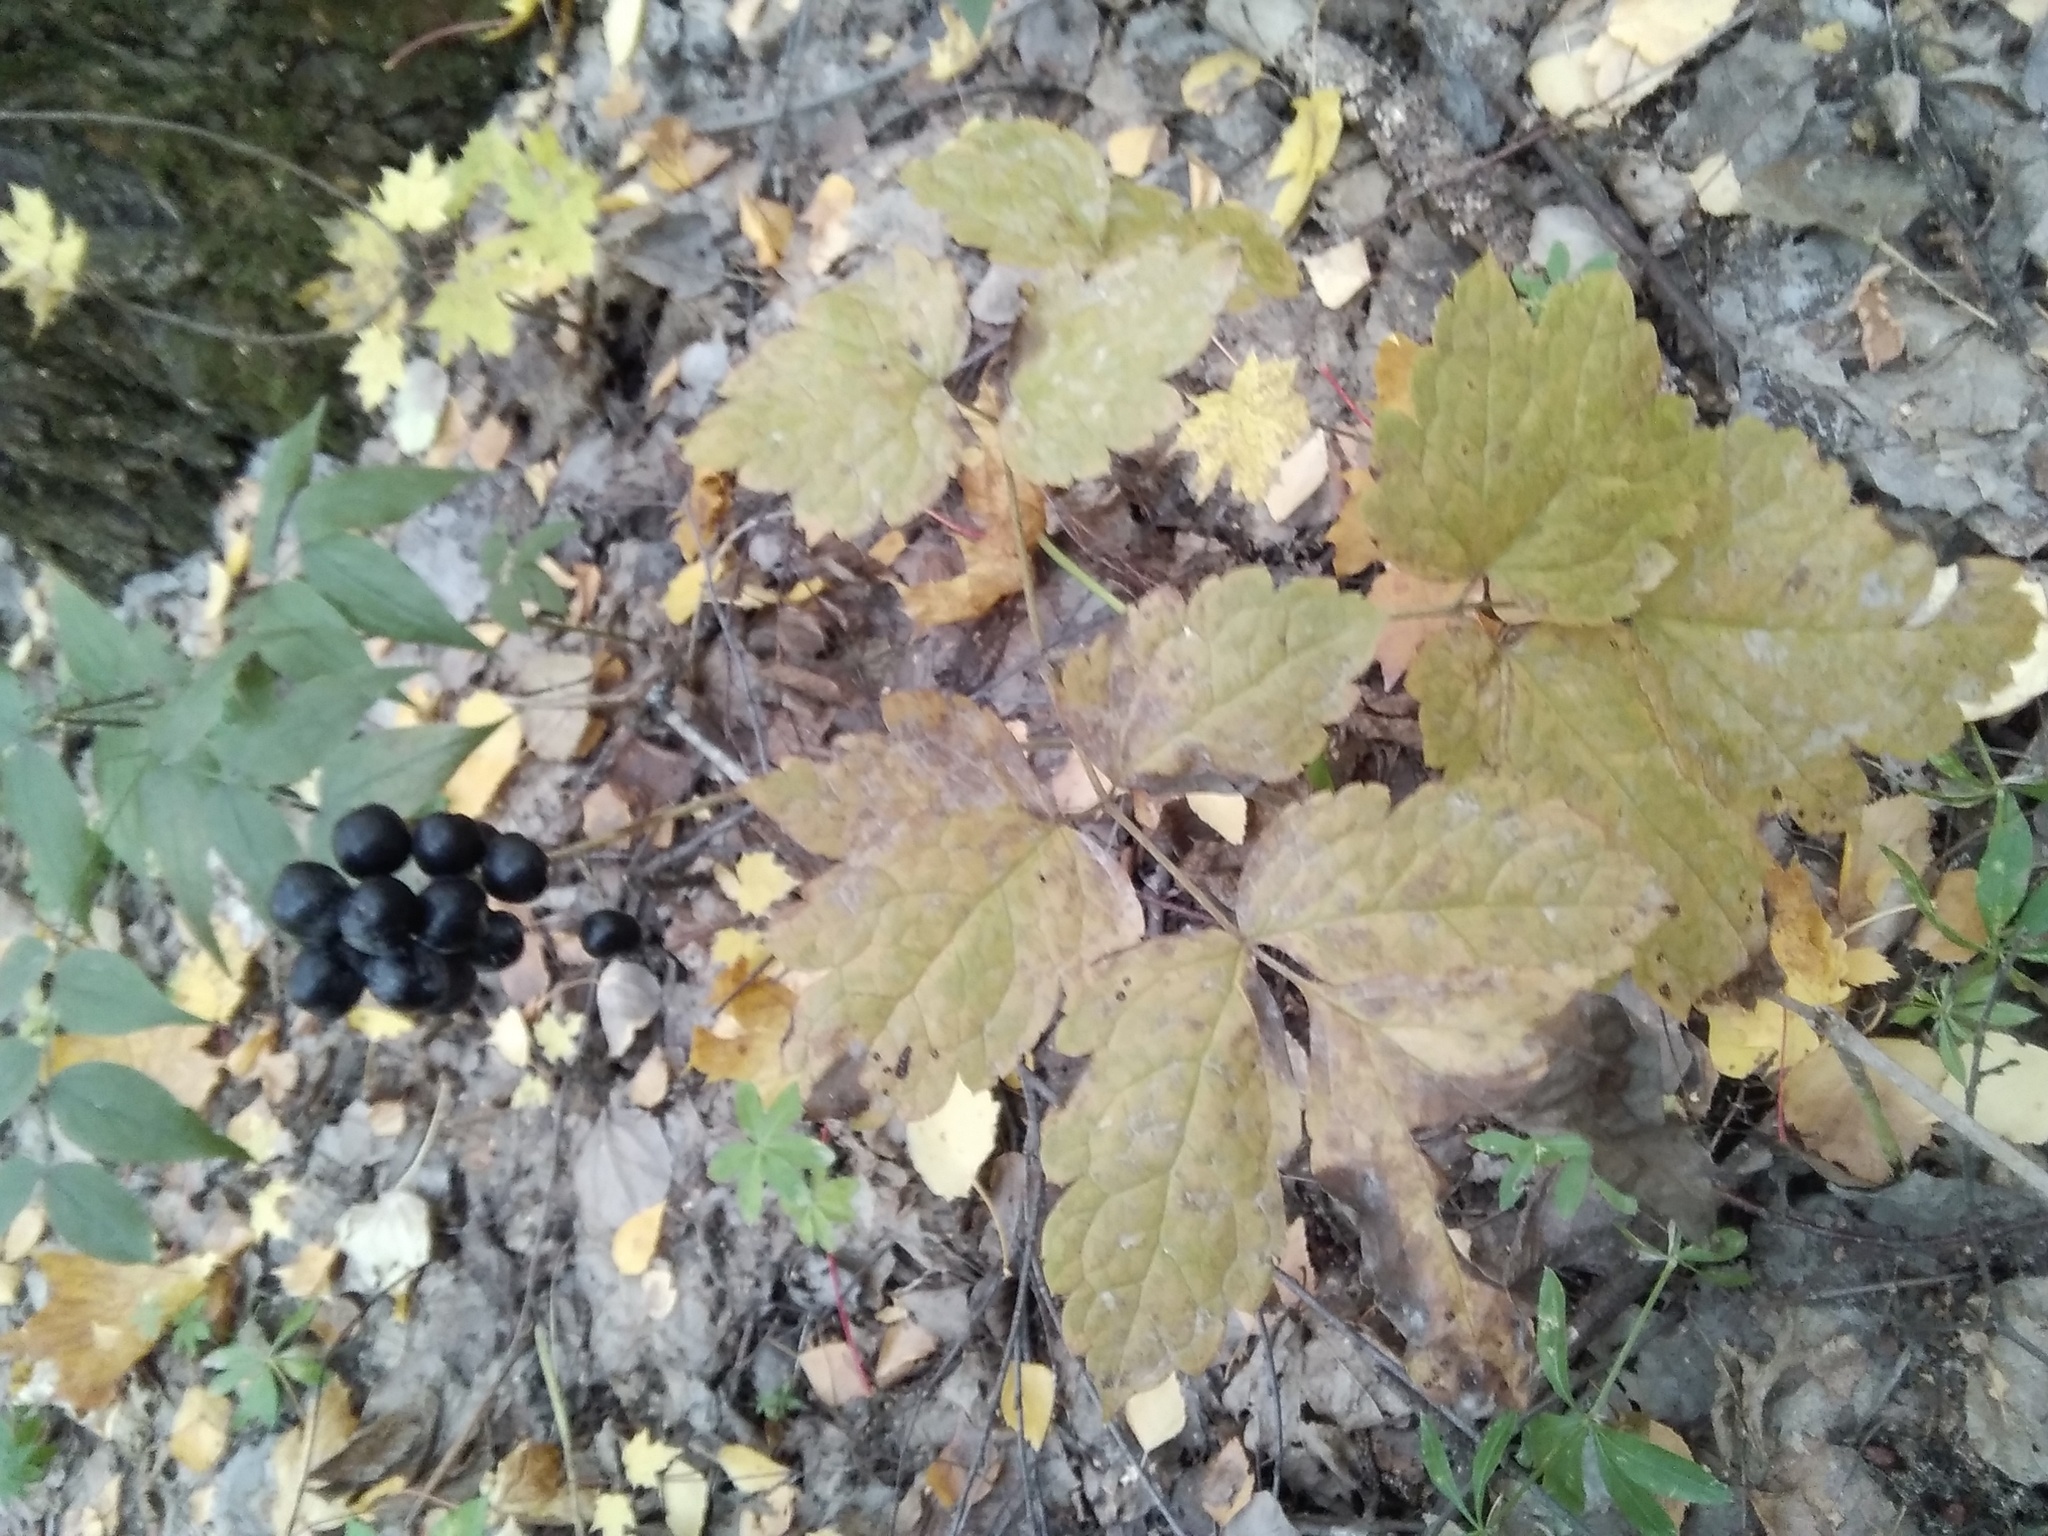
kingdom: Plantae
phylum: Tracheophyta
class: Magnoliopsida
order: Ranunculales
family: Ranunculaceae
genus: Actaea
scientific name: Actaea spicata
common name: Baneberry
